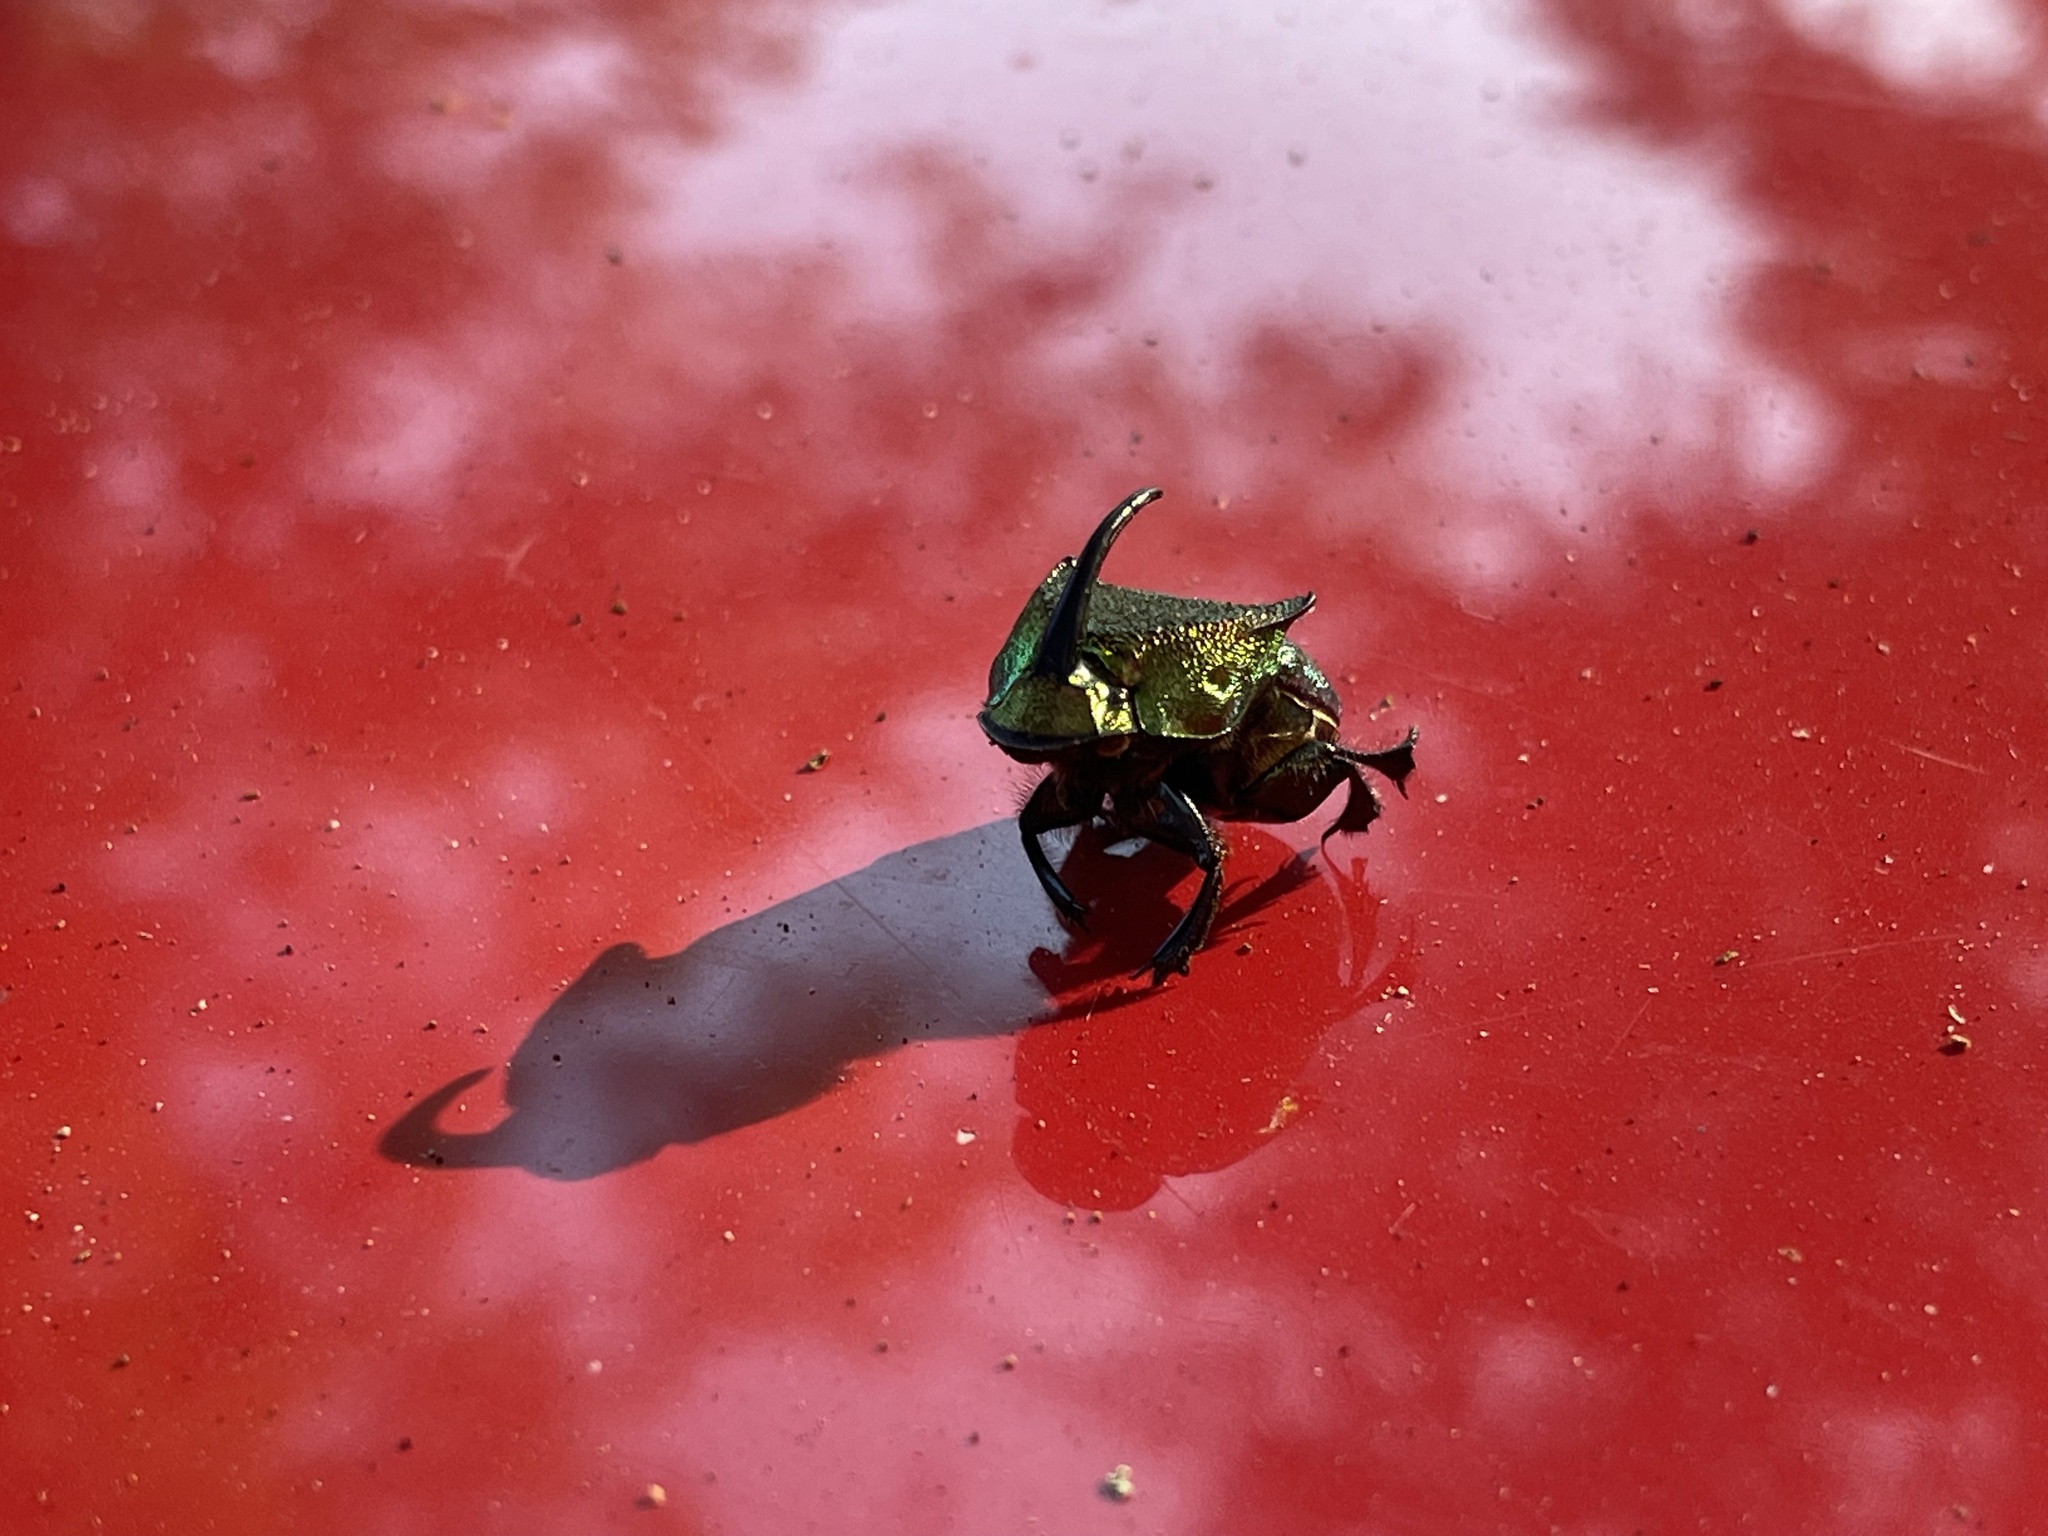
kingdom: Animalia
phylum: Arthropoda
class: Insecta
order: Coleoptera
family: Scarabaeidae
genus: Phanaeus
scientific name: Phanaeus vindex
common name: Rainbow scarab
